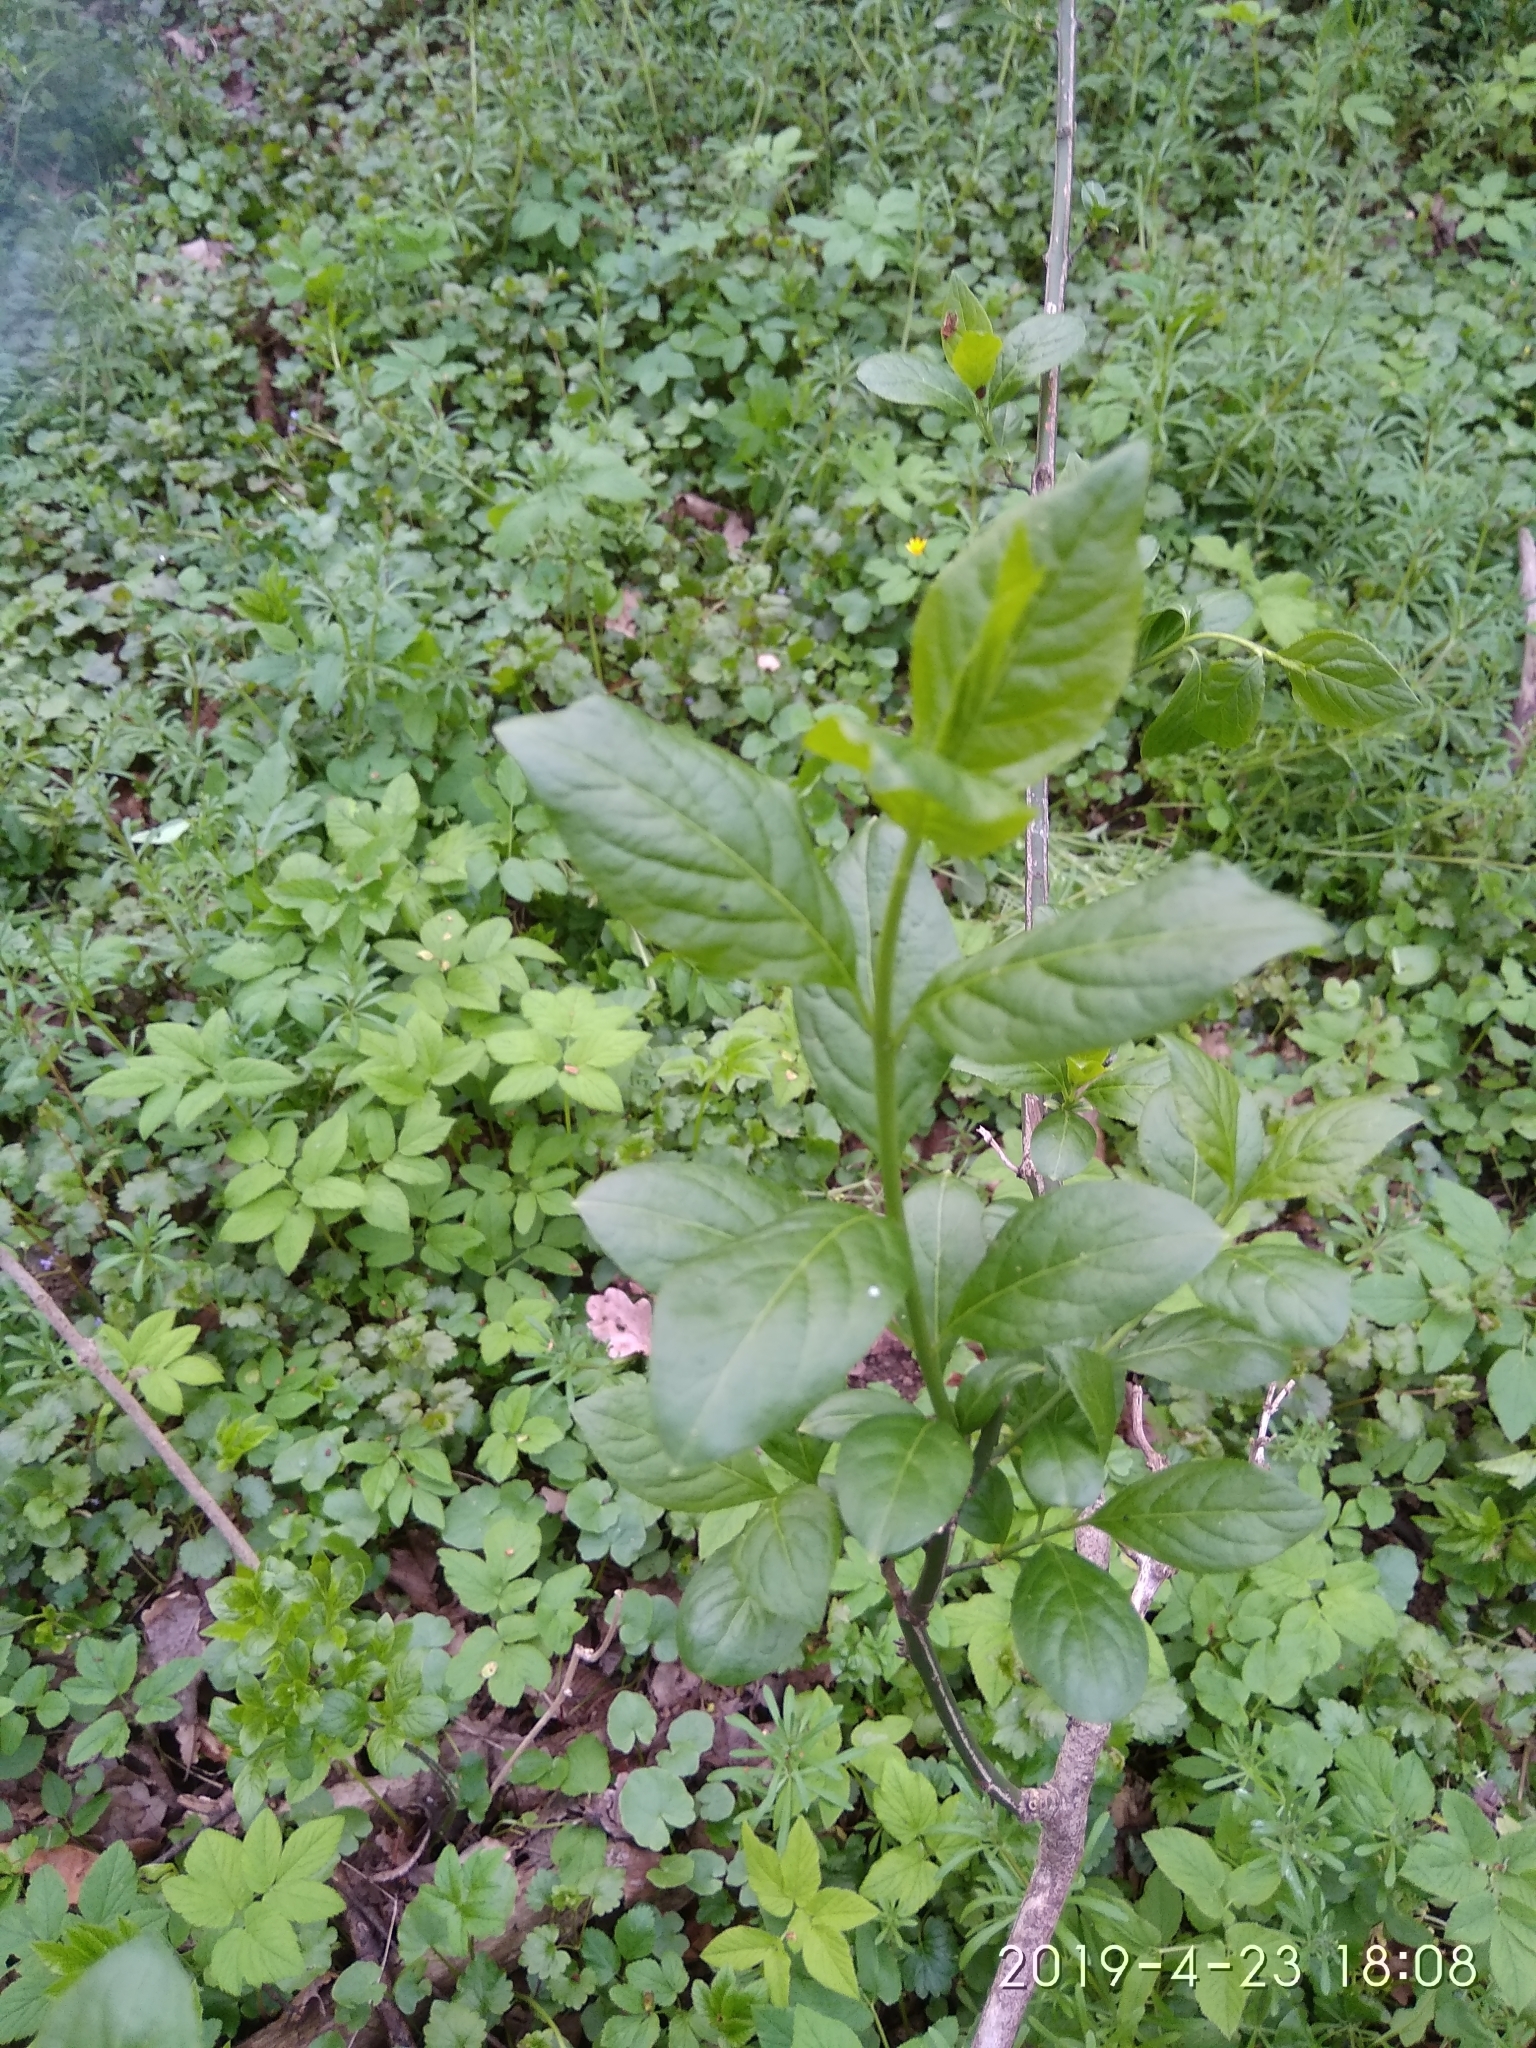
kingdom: Plantae
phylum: Tracheophyta
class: Magnoliopsida
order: Celastrales
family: Celastraceae
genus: Euonymus
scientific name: Euonymus europaeus
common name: Spindle
